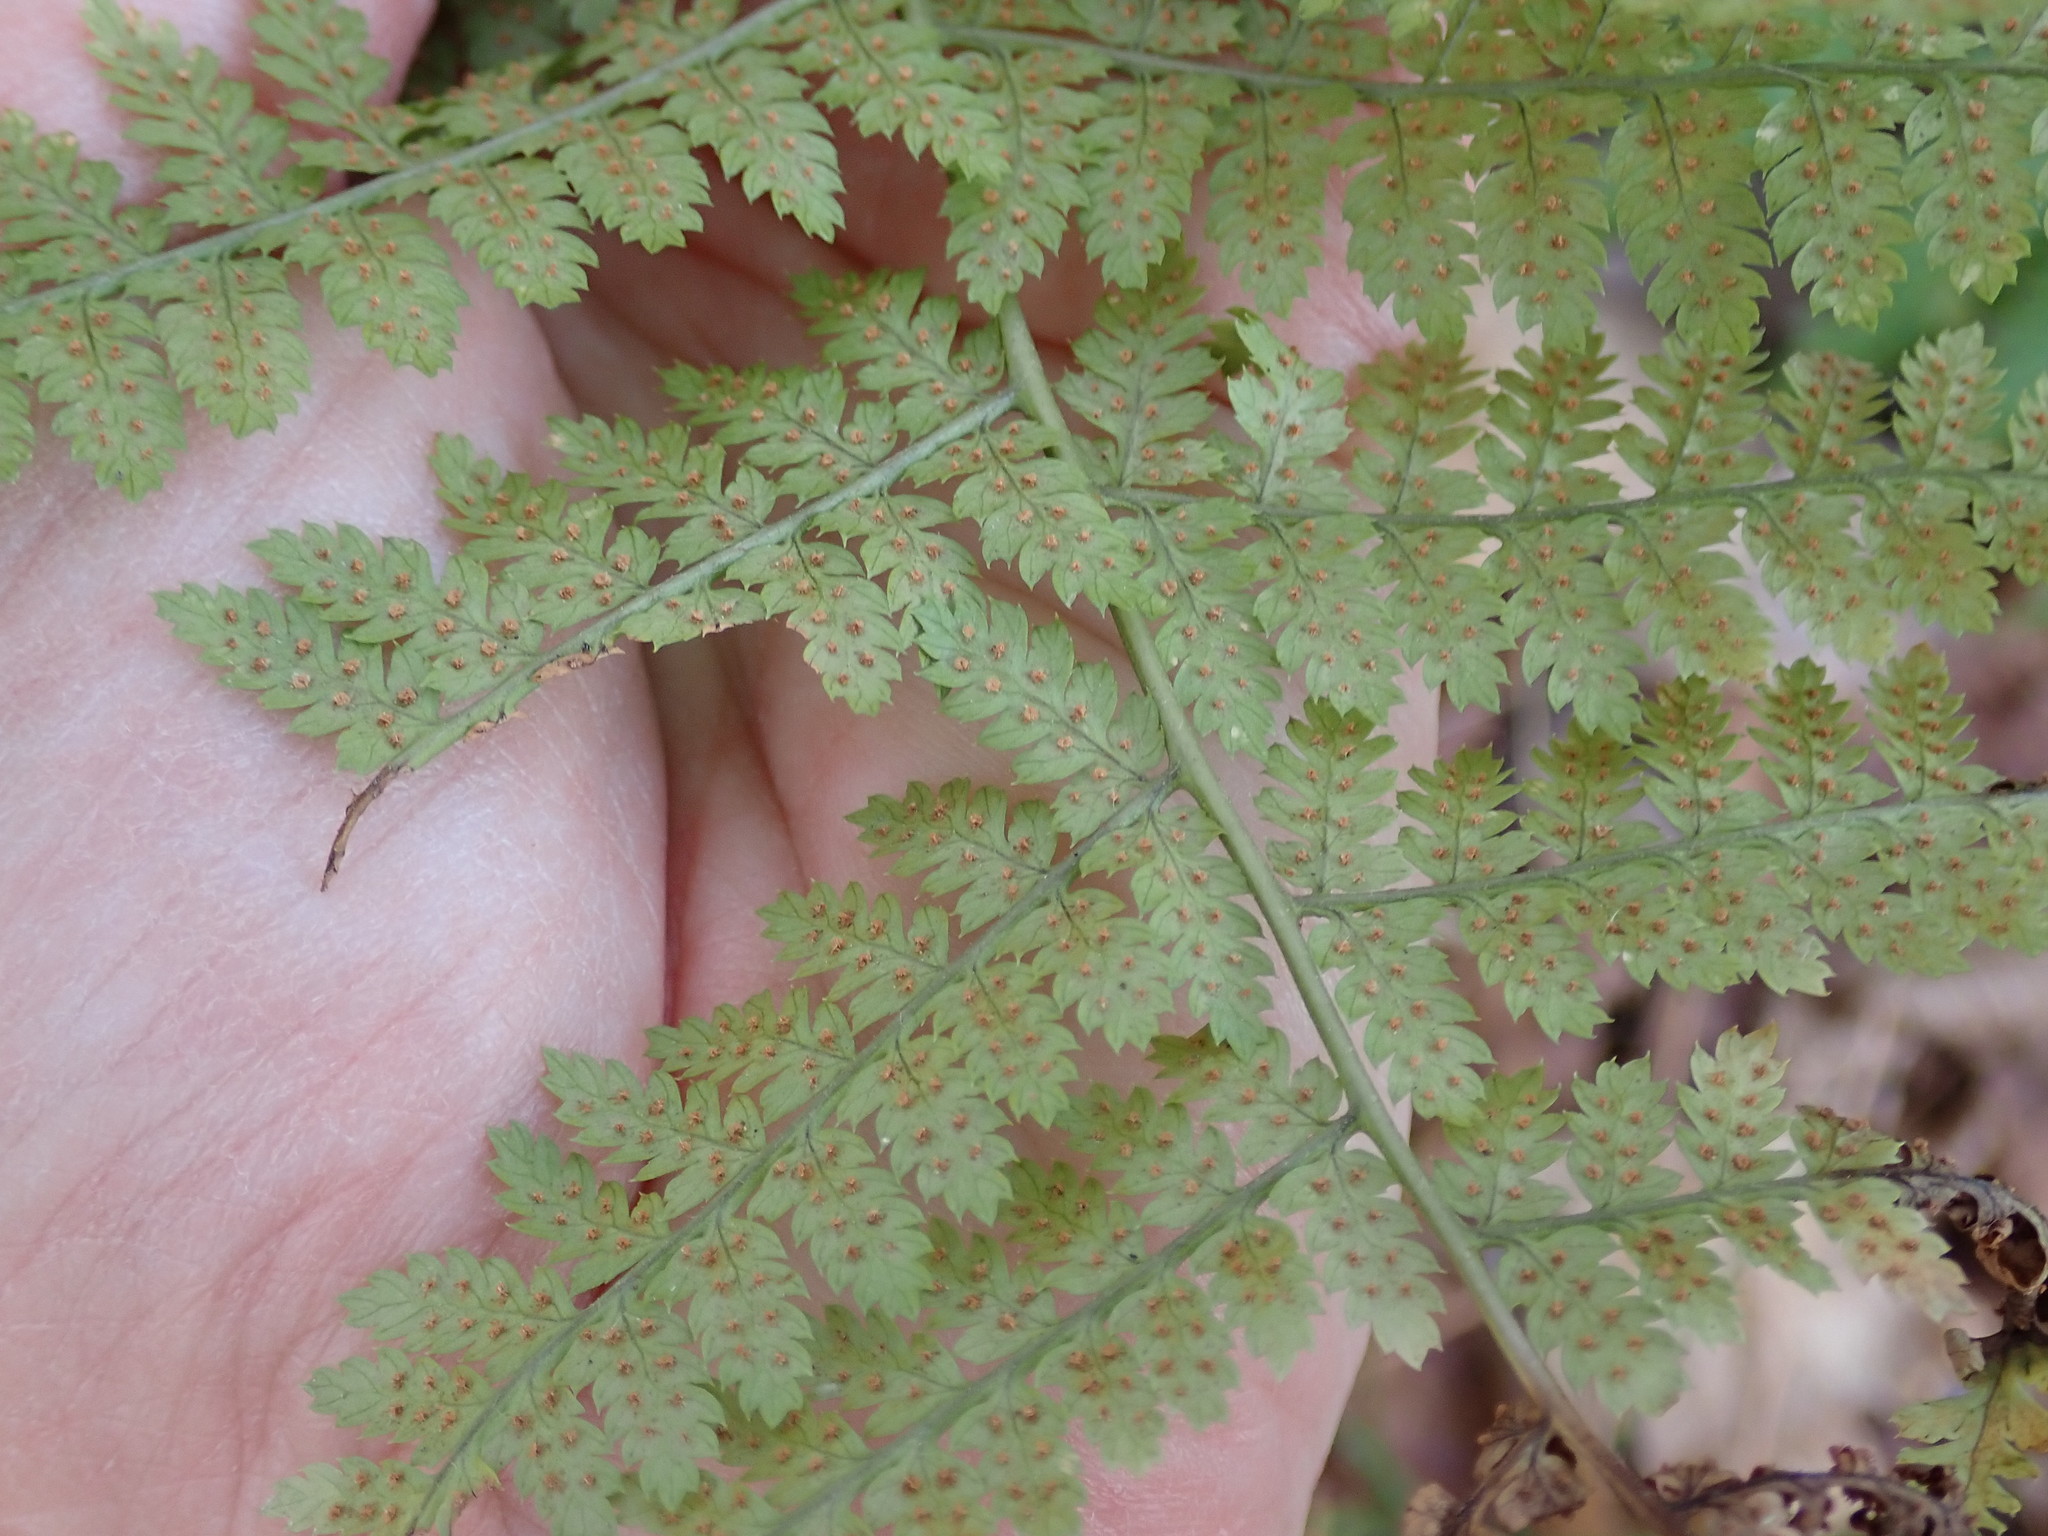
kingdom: Plantae
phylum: Tracheophyta
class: Polypodiopsida
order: Polypodiales
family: Dryopteridaceae
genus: Dryopteris
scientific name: Dryopteris intermedia
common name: Evergreen wood fern
